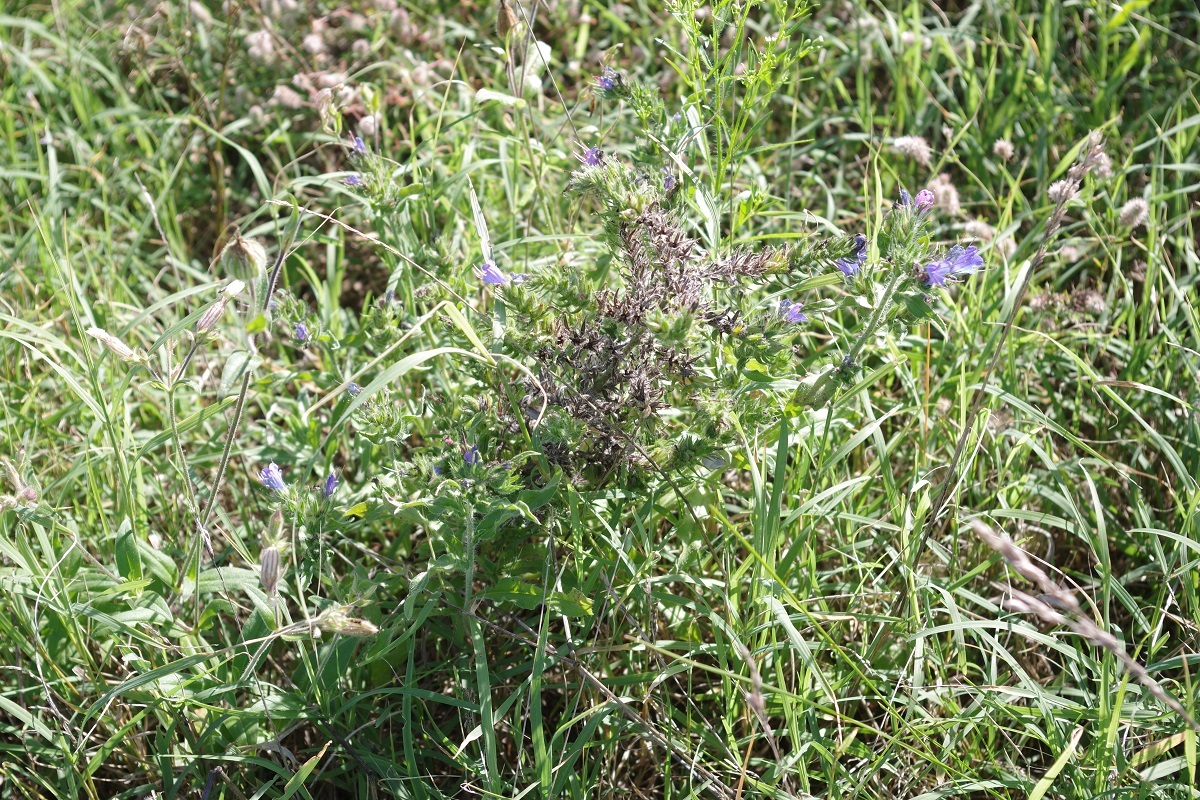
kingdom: Plantae
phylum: Tracheophyta
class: Magnoliopsida
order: Boraginales
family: Boraginaceae
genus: Echium
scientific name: Echium vulgare
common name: Common viper's bugloss
